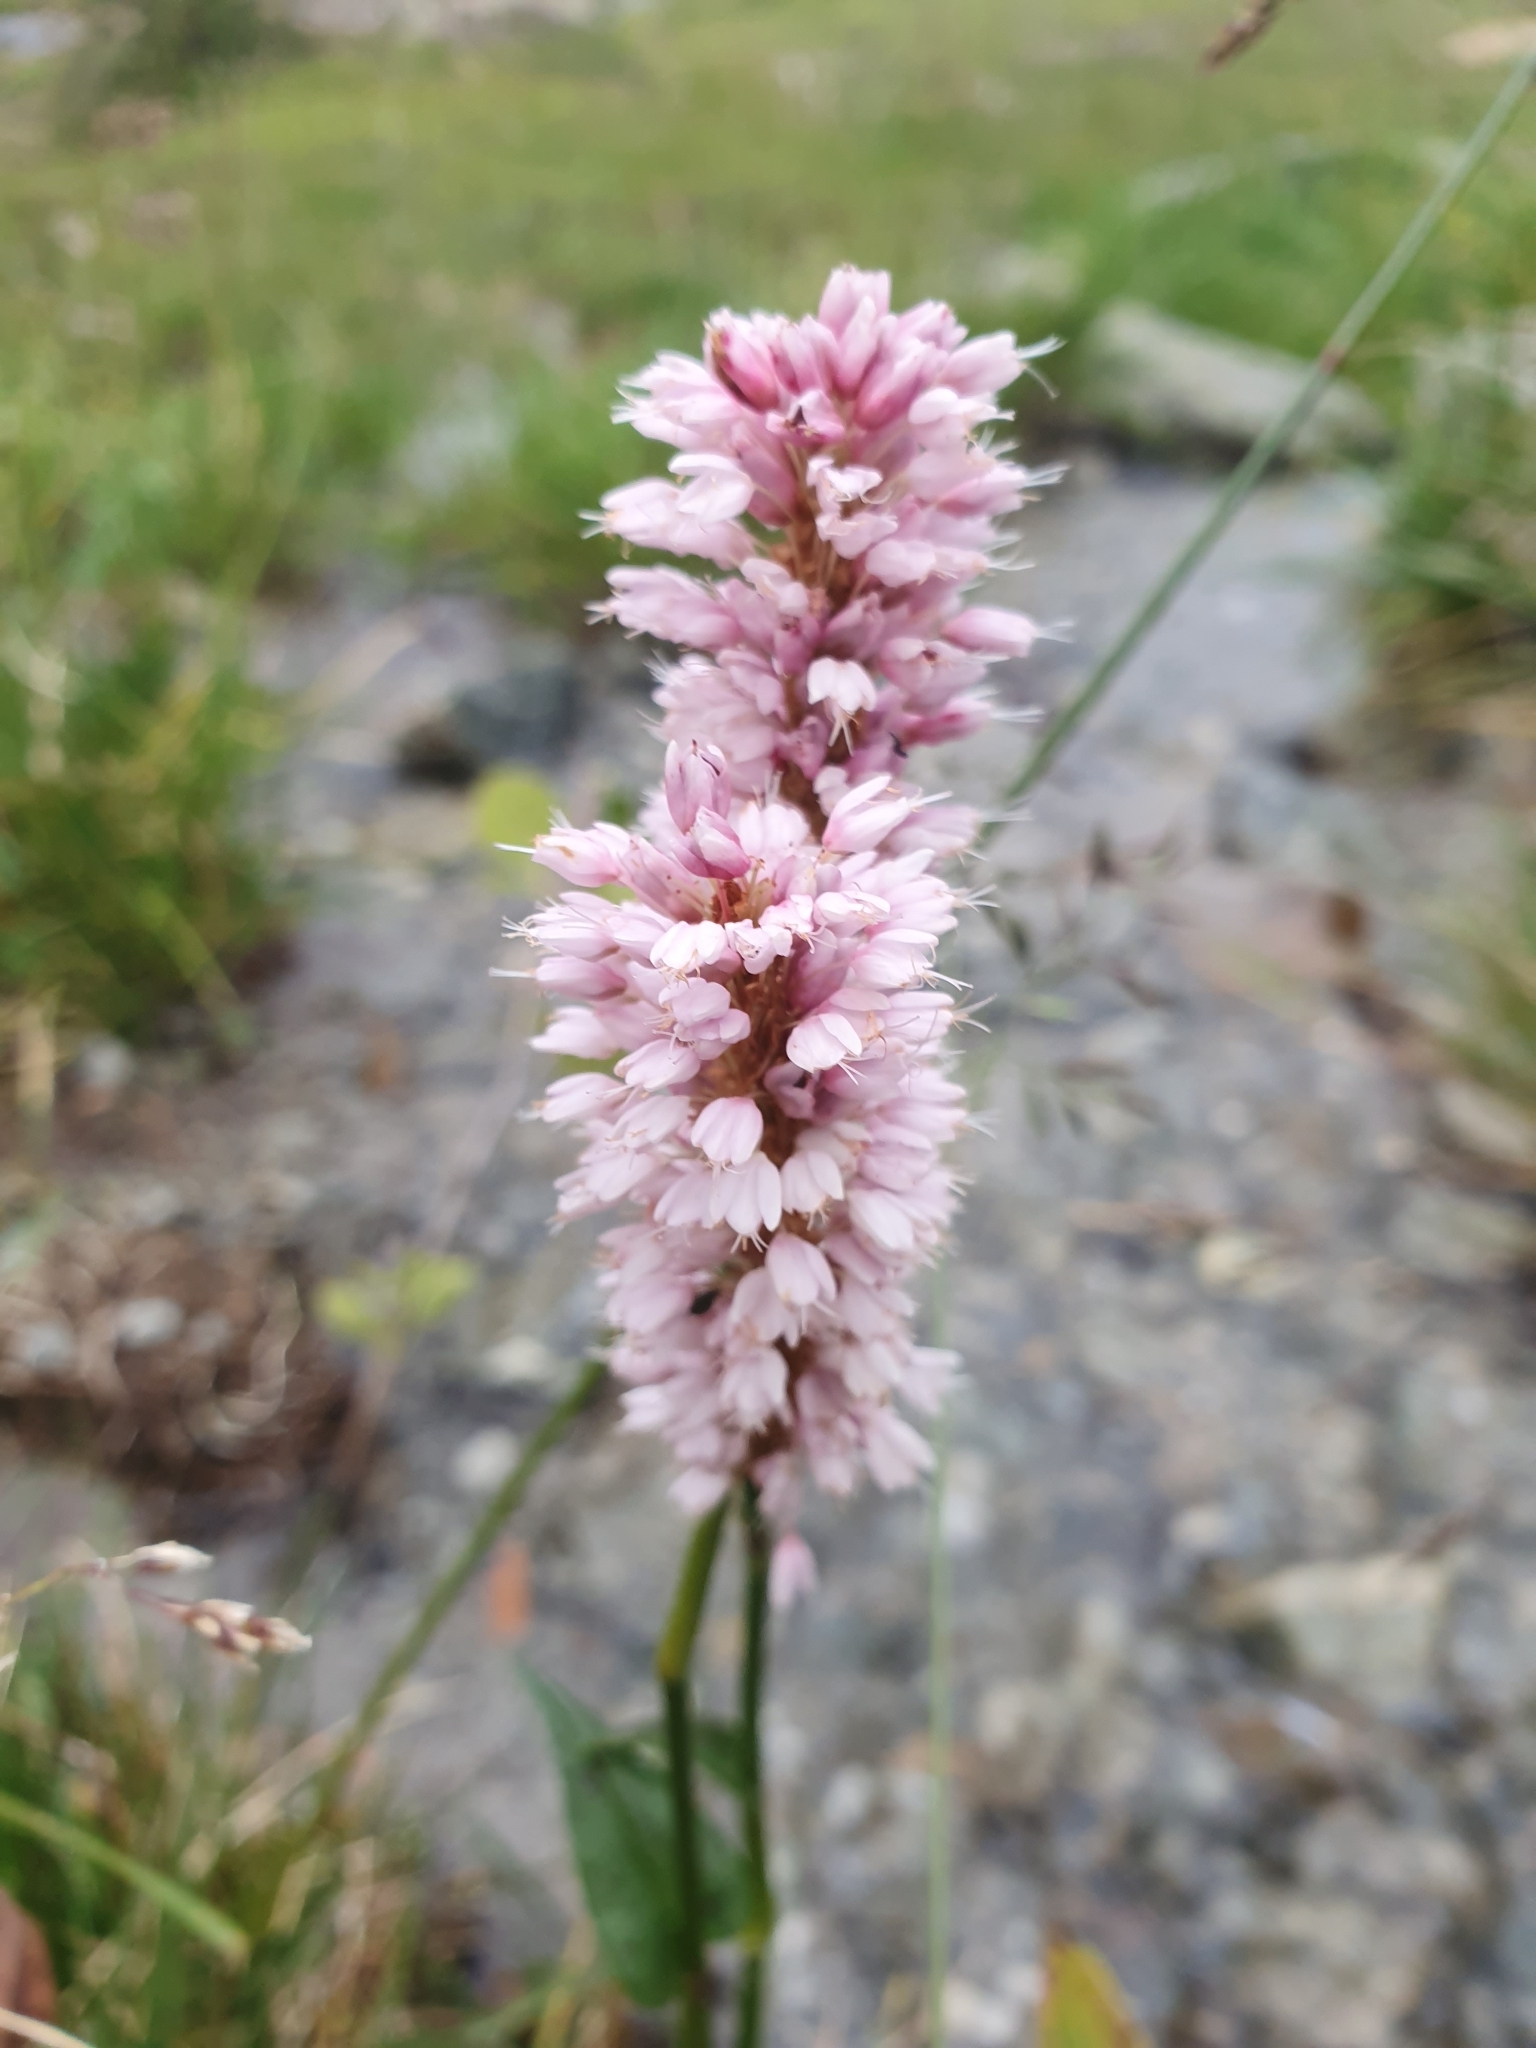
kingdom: Plantae
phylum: Tracheophyta
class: Magnoliopsida
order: Caryophyllales
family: Polygonaceae
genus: Bistorta
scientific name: Bistorta officinalis
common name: Common bistort
